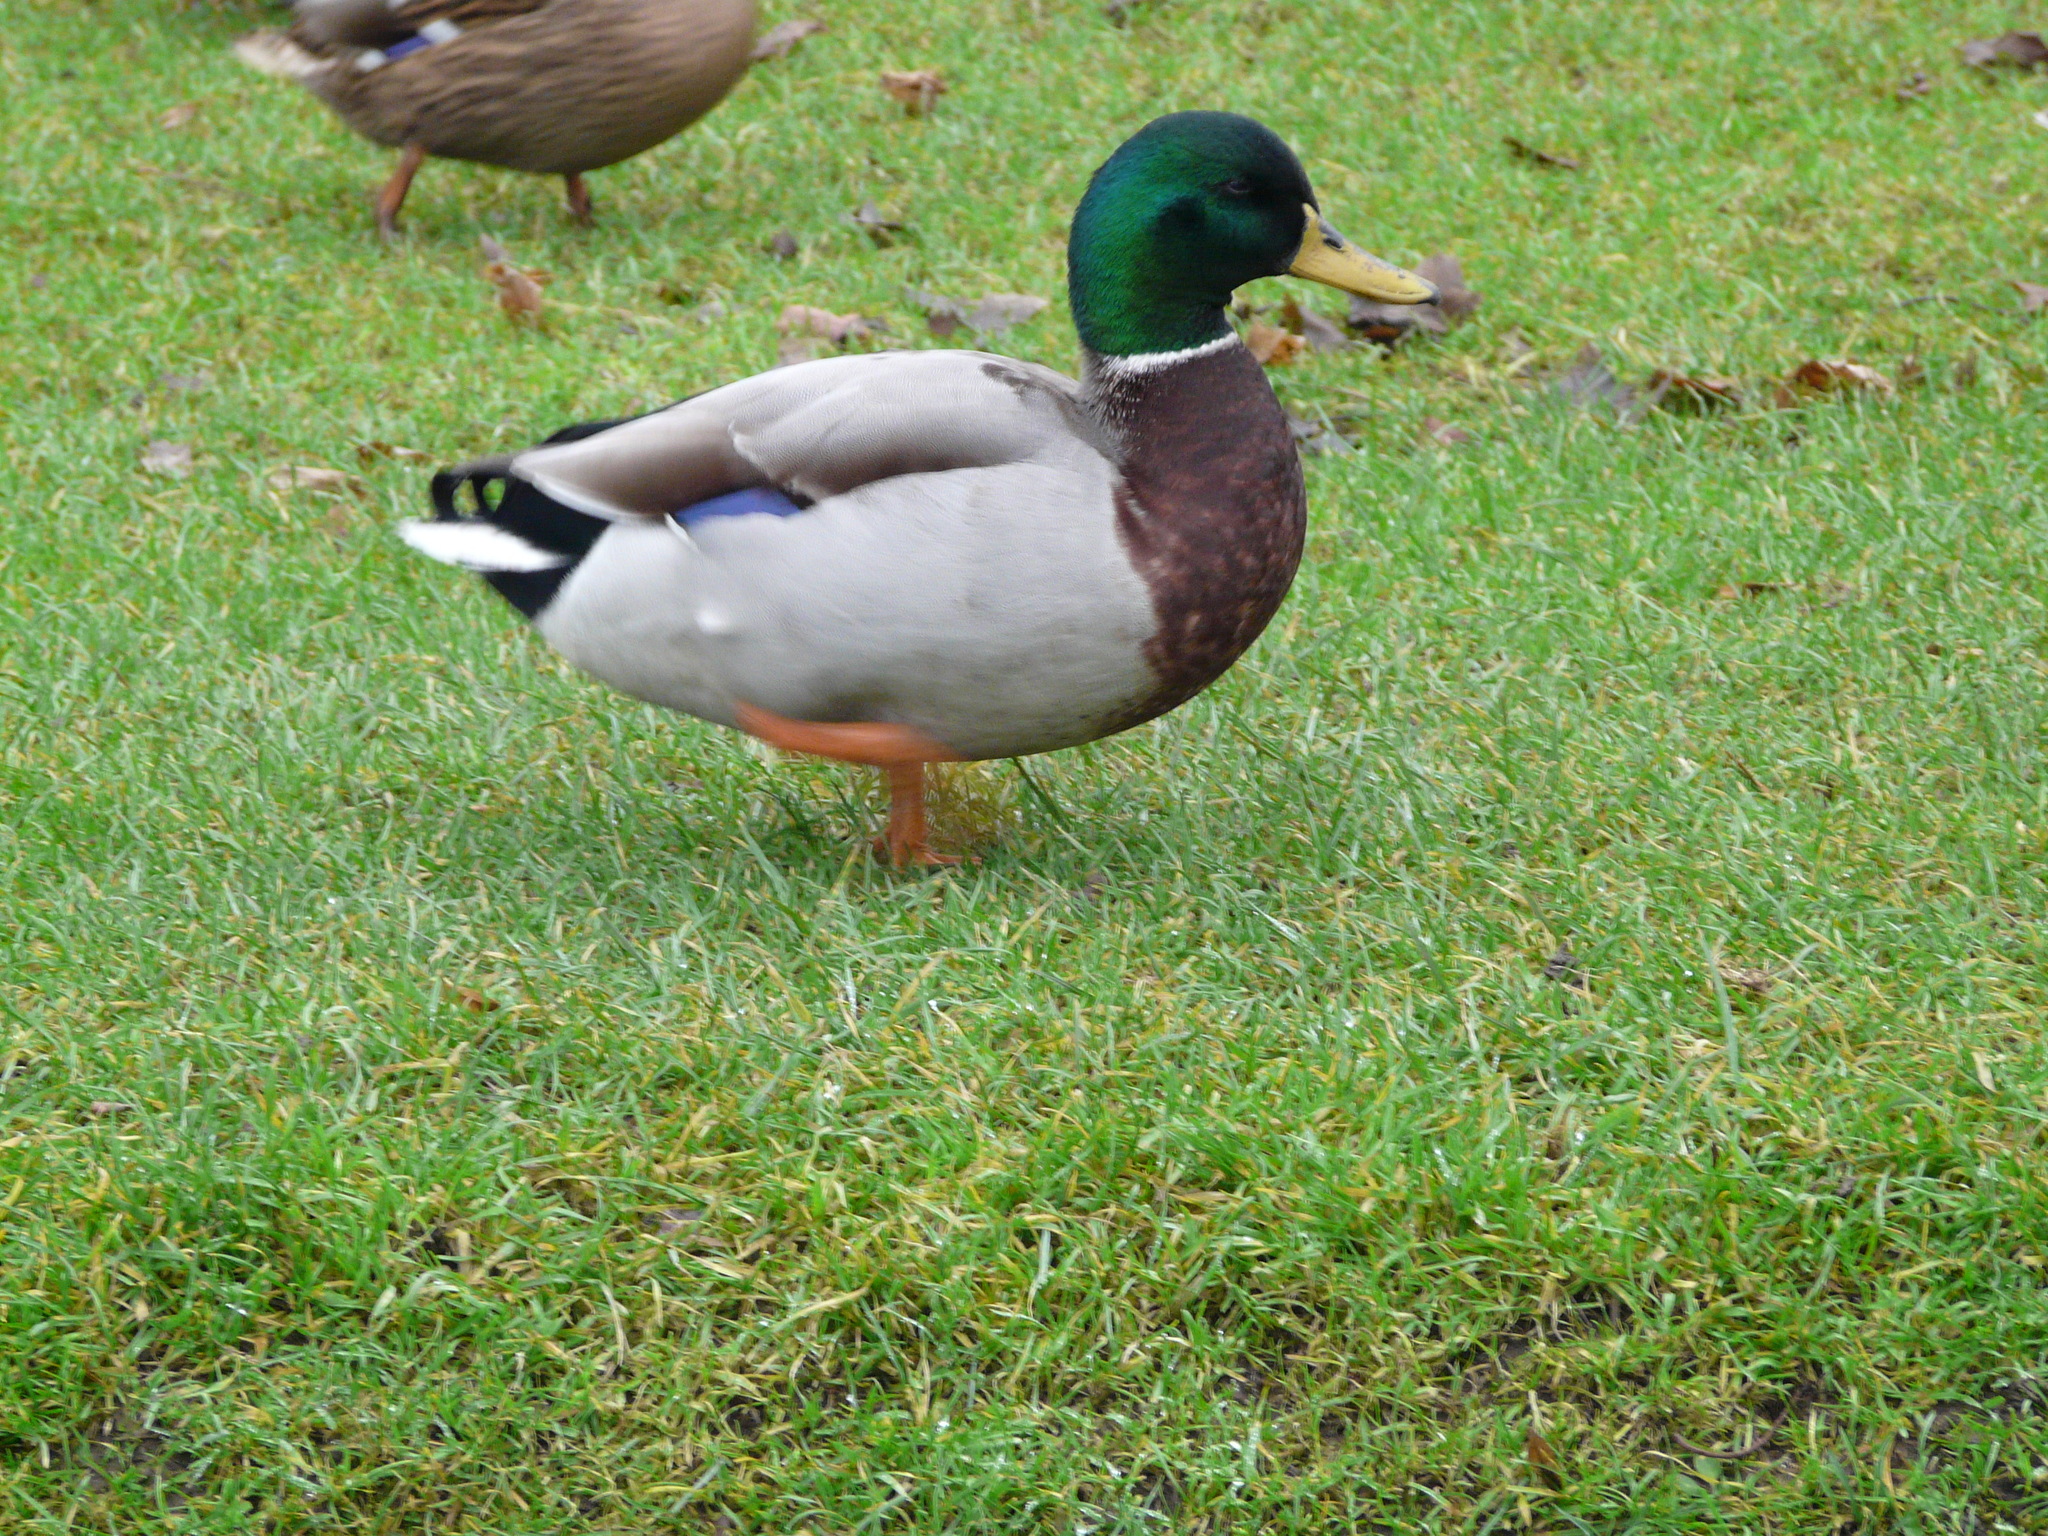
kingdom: Animalia
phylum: Chordata
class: Aves
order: Anseriformes
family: Anatidae
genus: Anas
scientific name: Anas platyrhynchos
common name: Mallard
